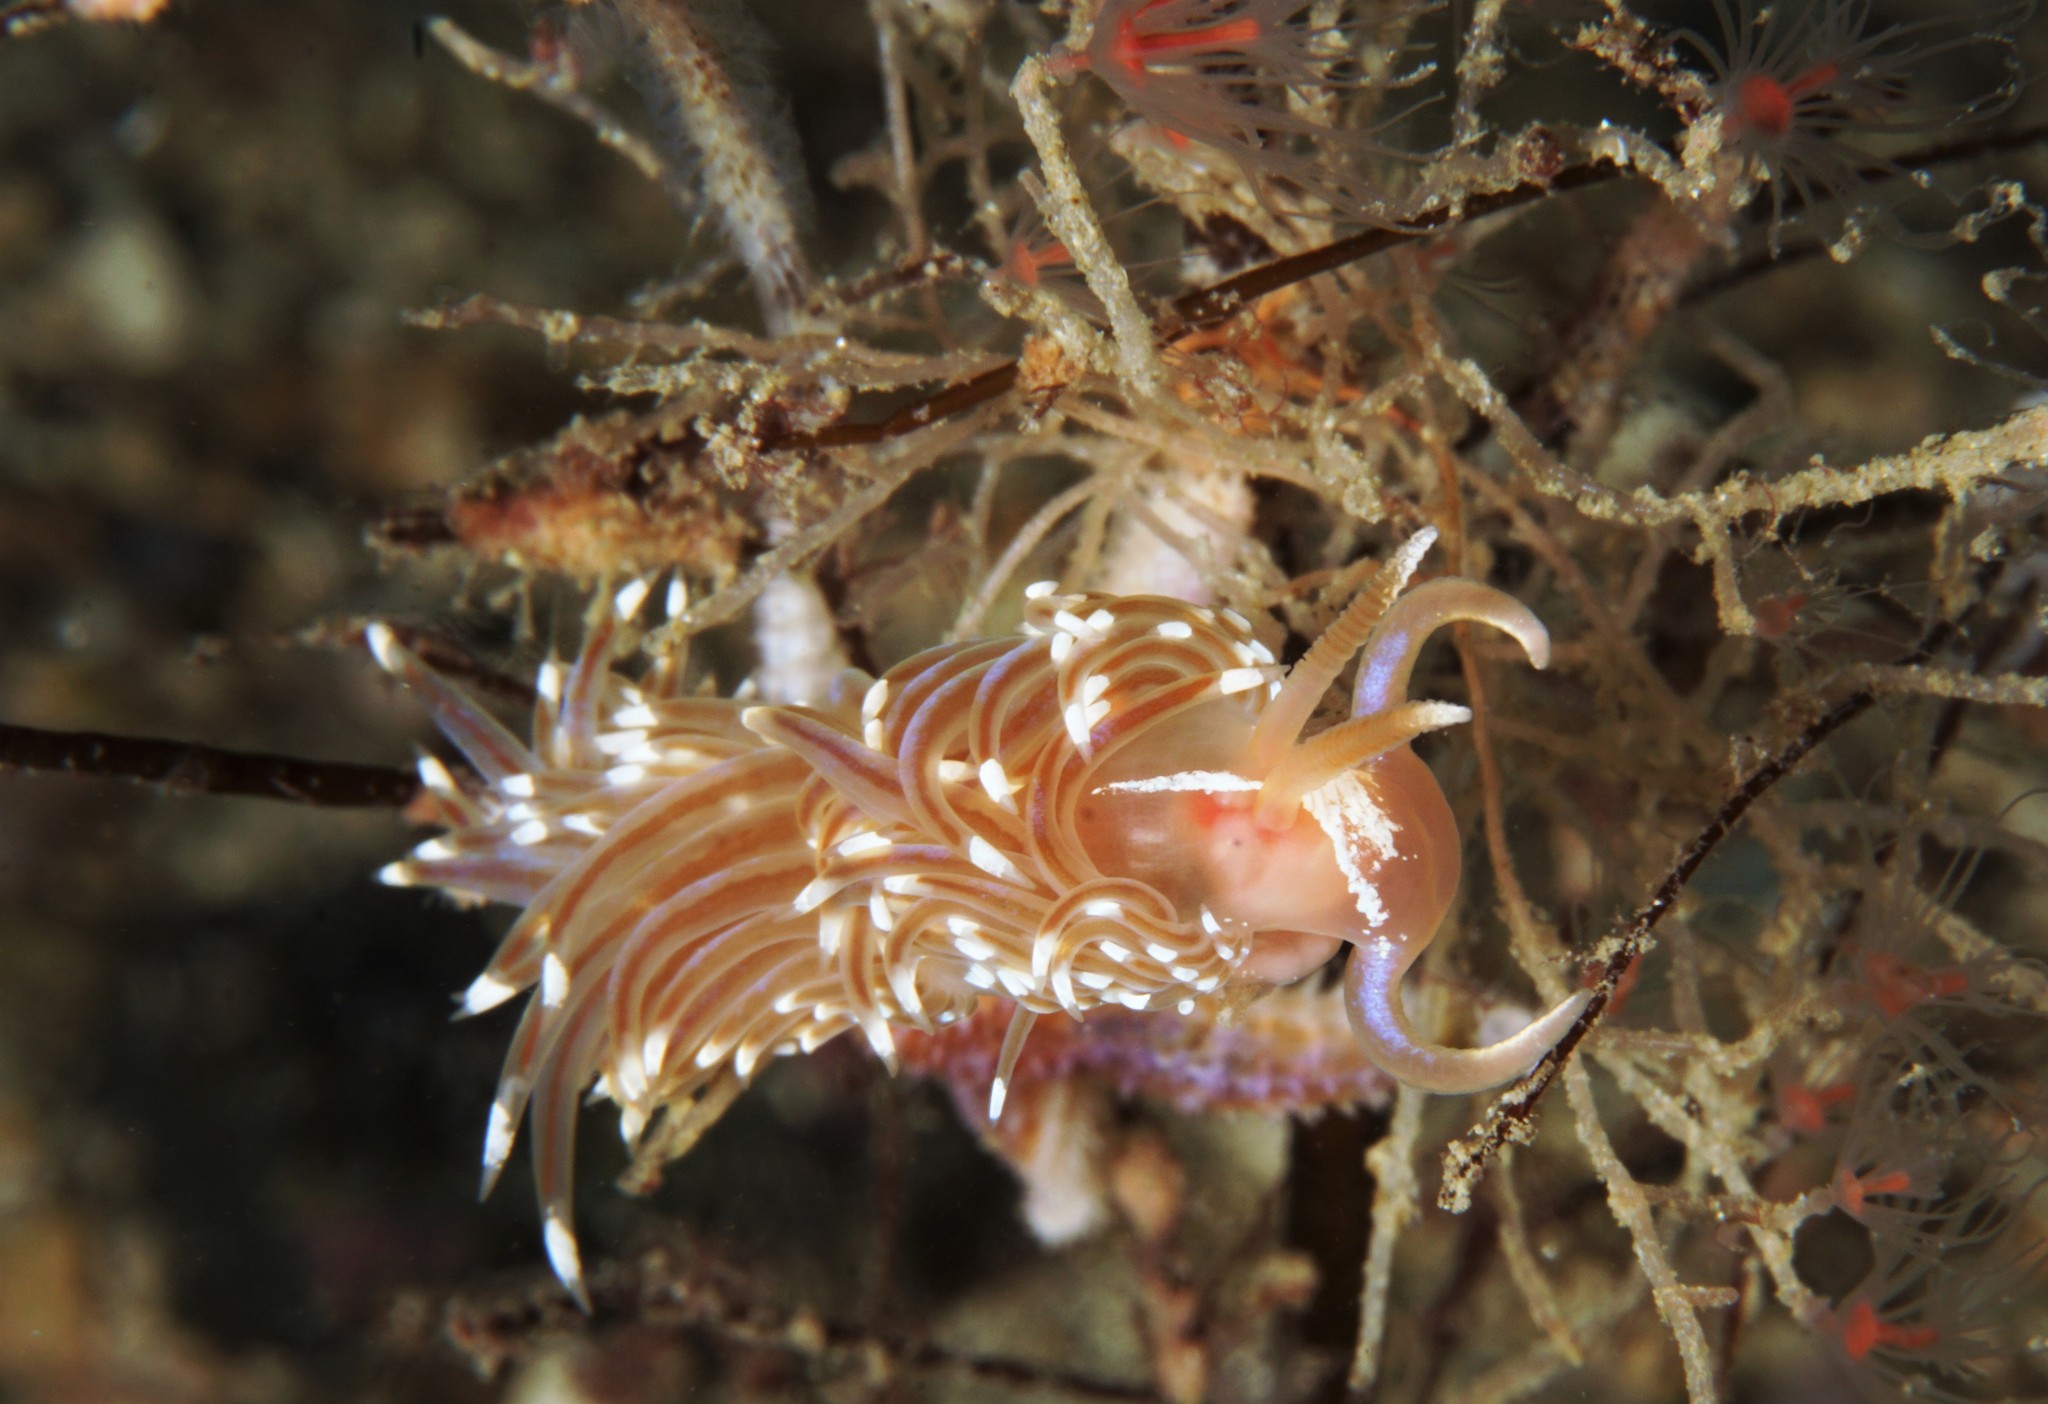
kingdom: Animalia
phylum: Mollusca
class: Gastropoda
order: Nudibranchia
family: Facelinidae
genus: Facelina
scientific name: Facelina bostoniensis
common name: Boston facelina
